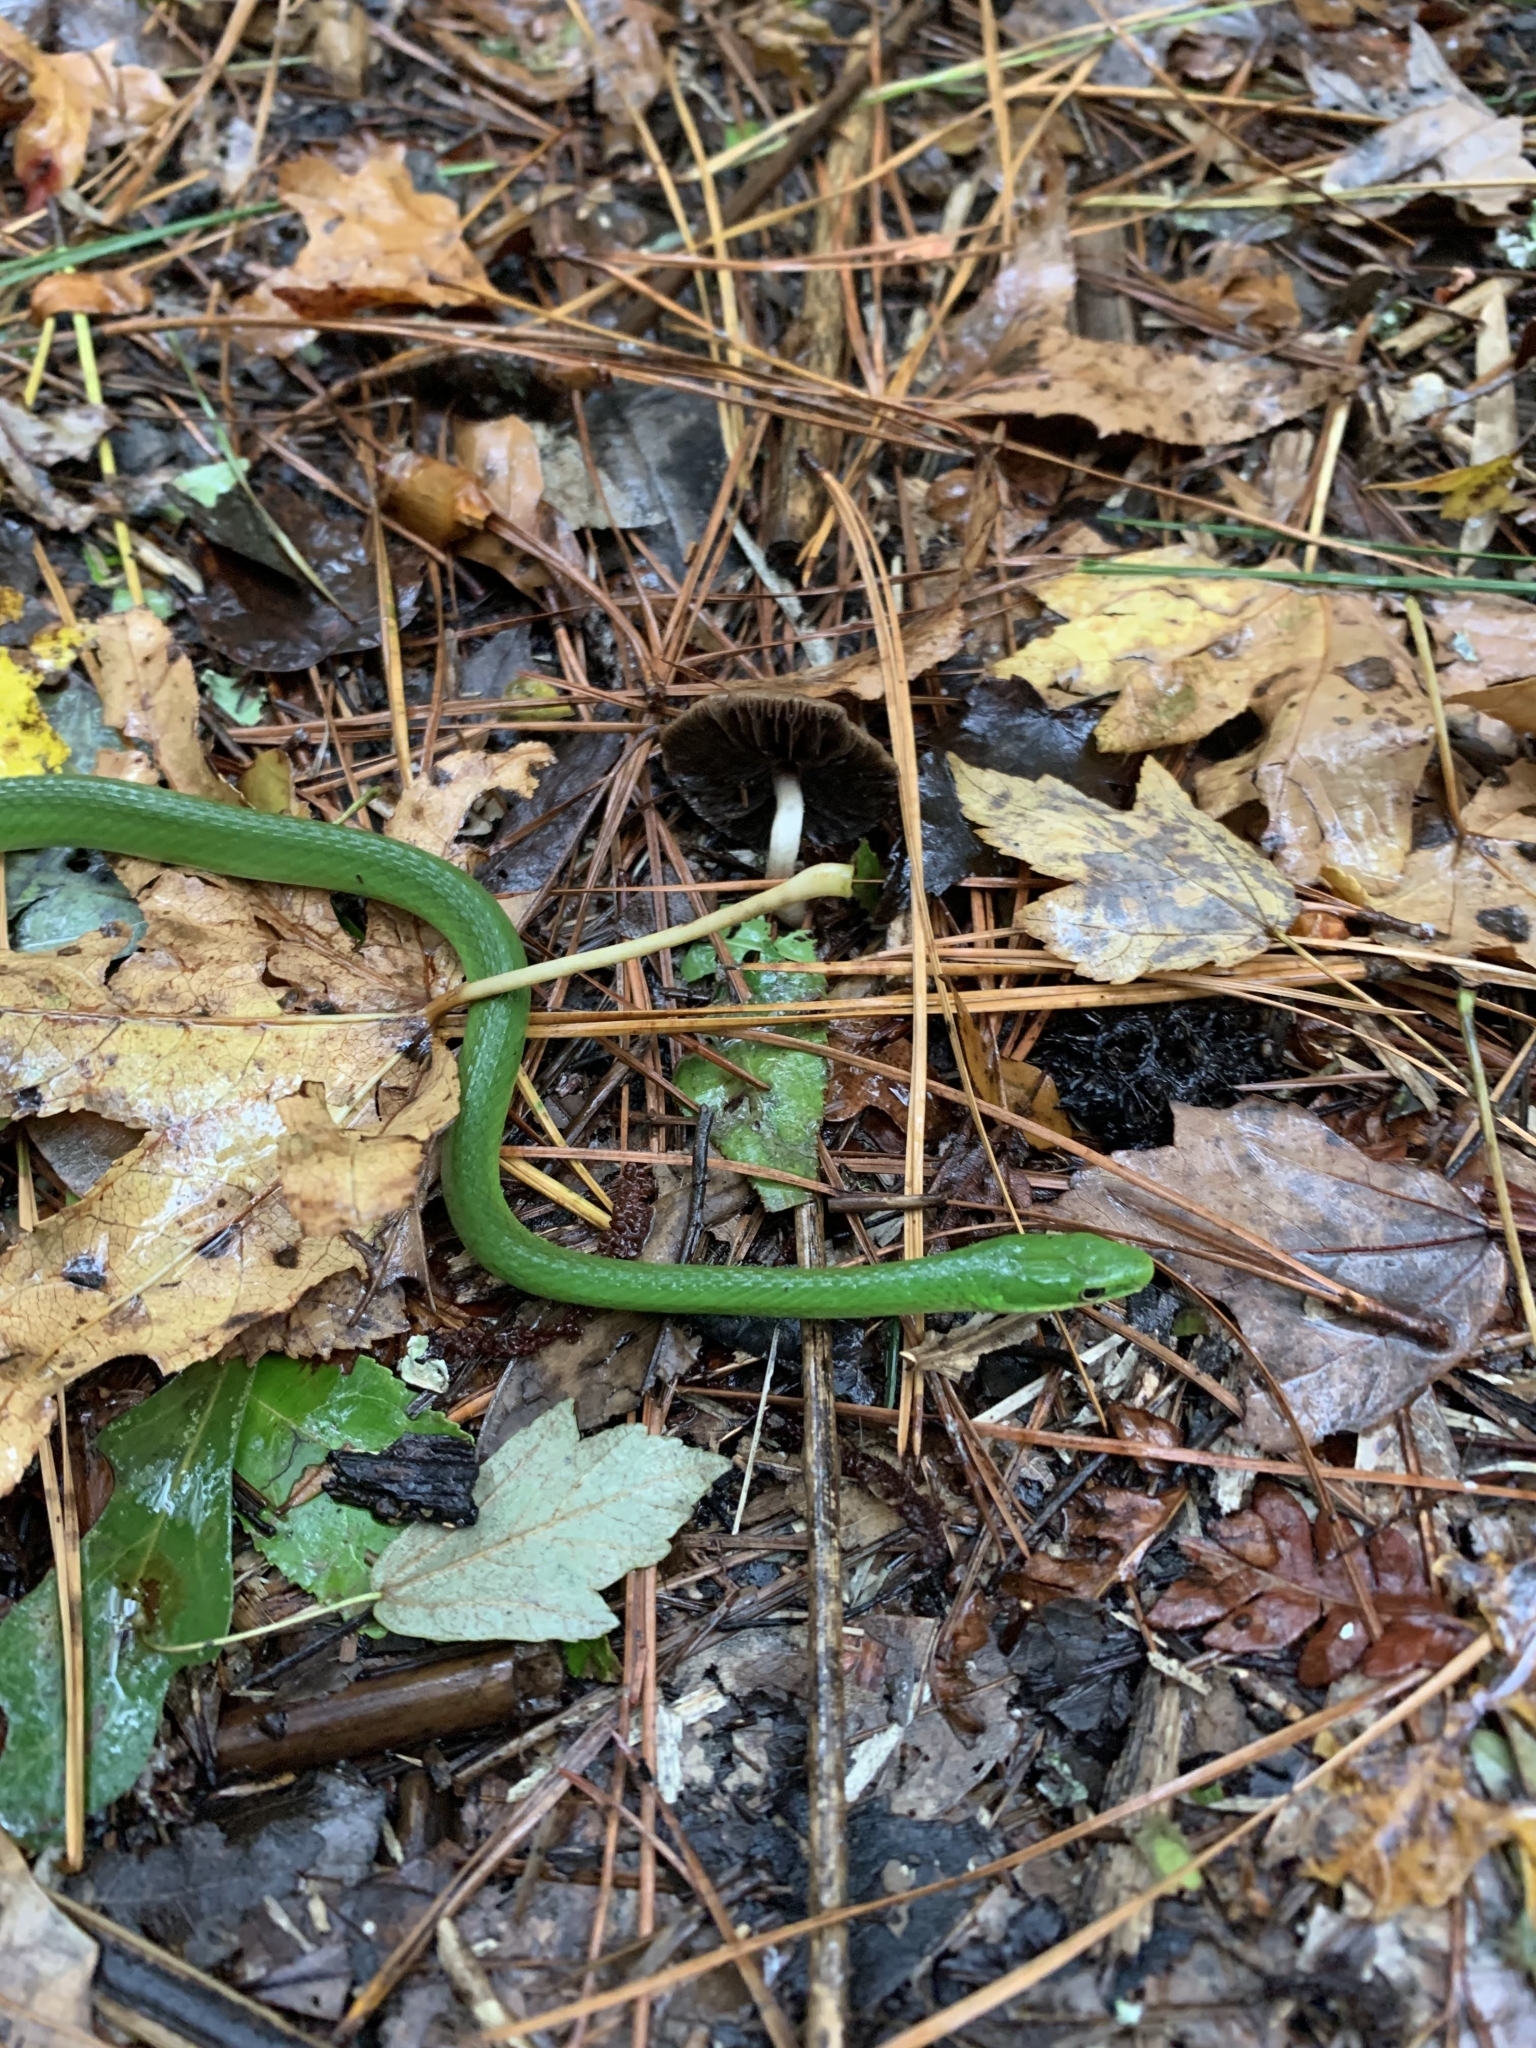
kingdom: Animalia
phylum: Chordata
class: Squamata
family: Colubridae
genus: Opheodrys
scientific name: Opheodrys aestivus
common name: Rough greensnake
